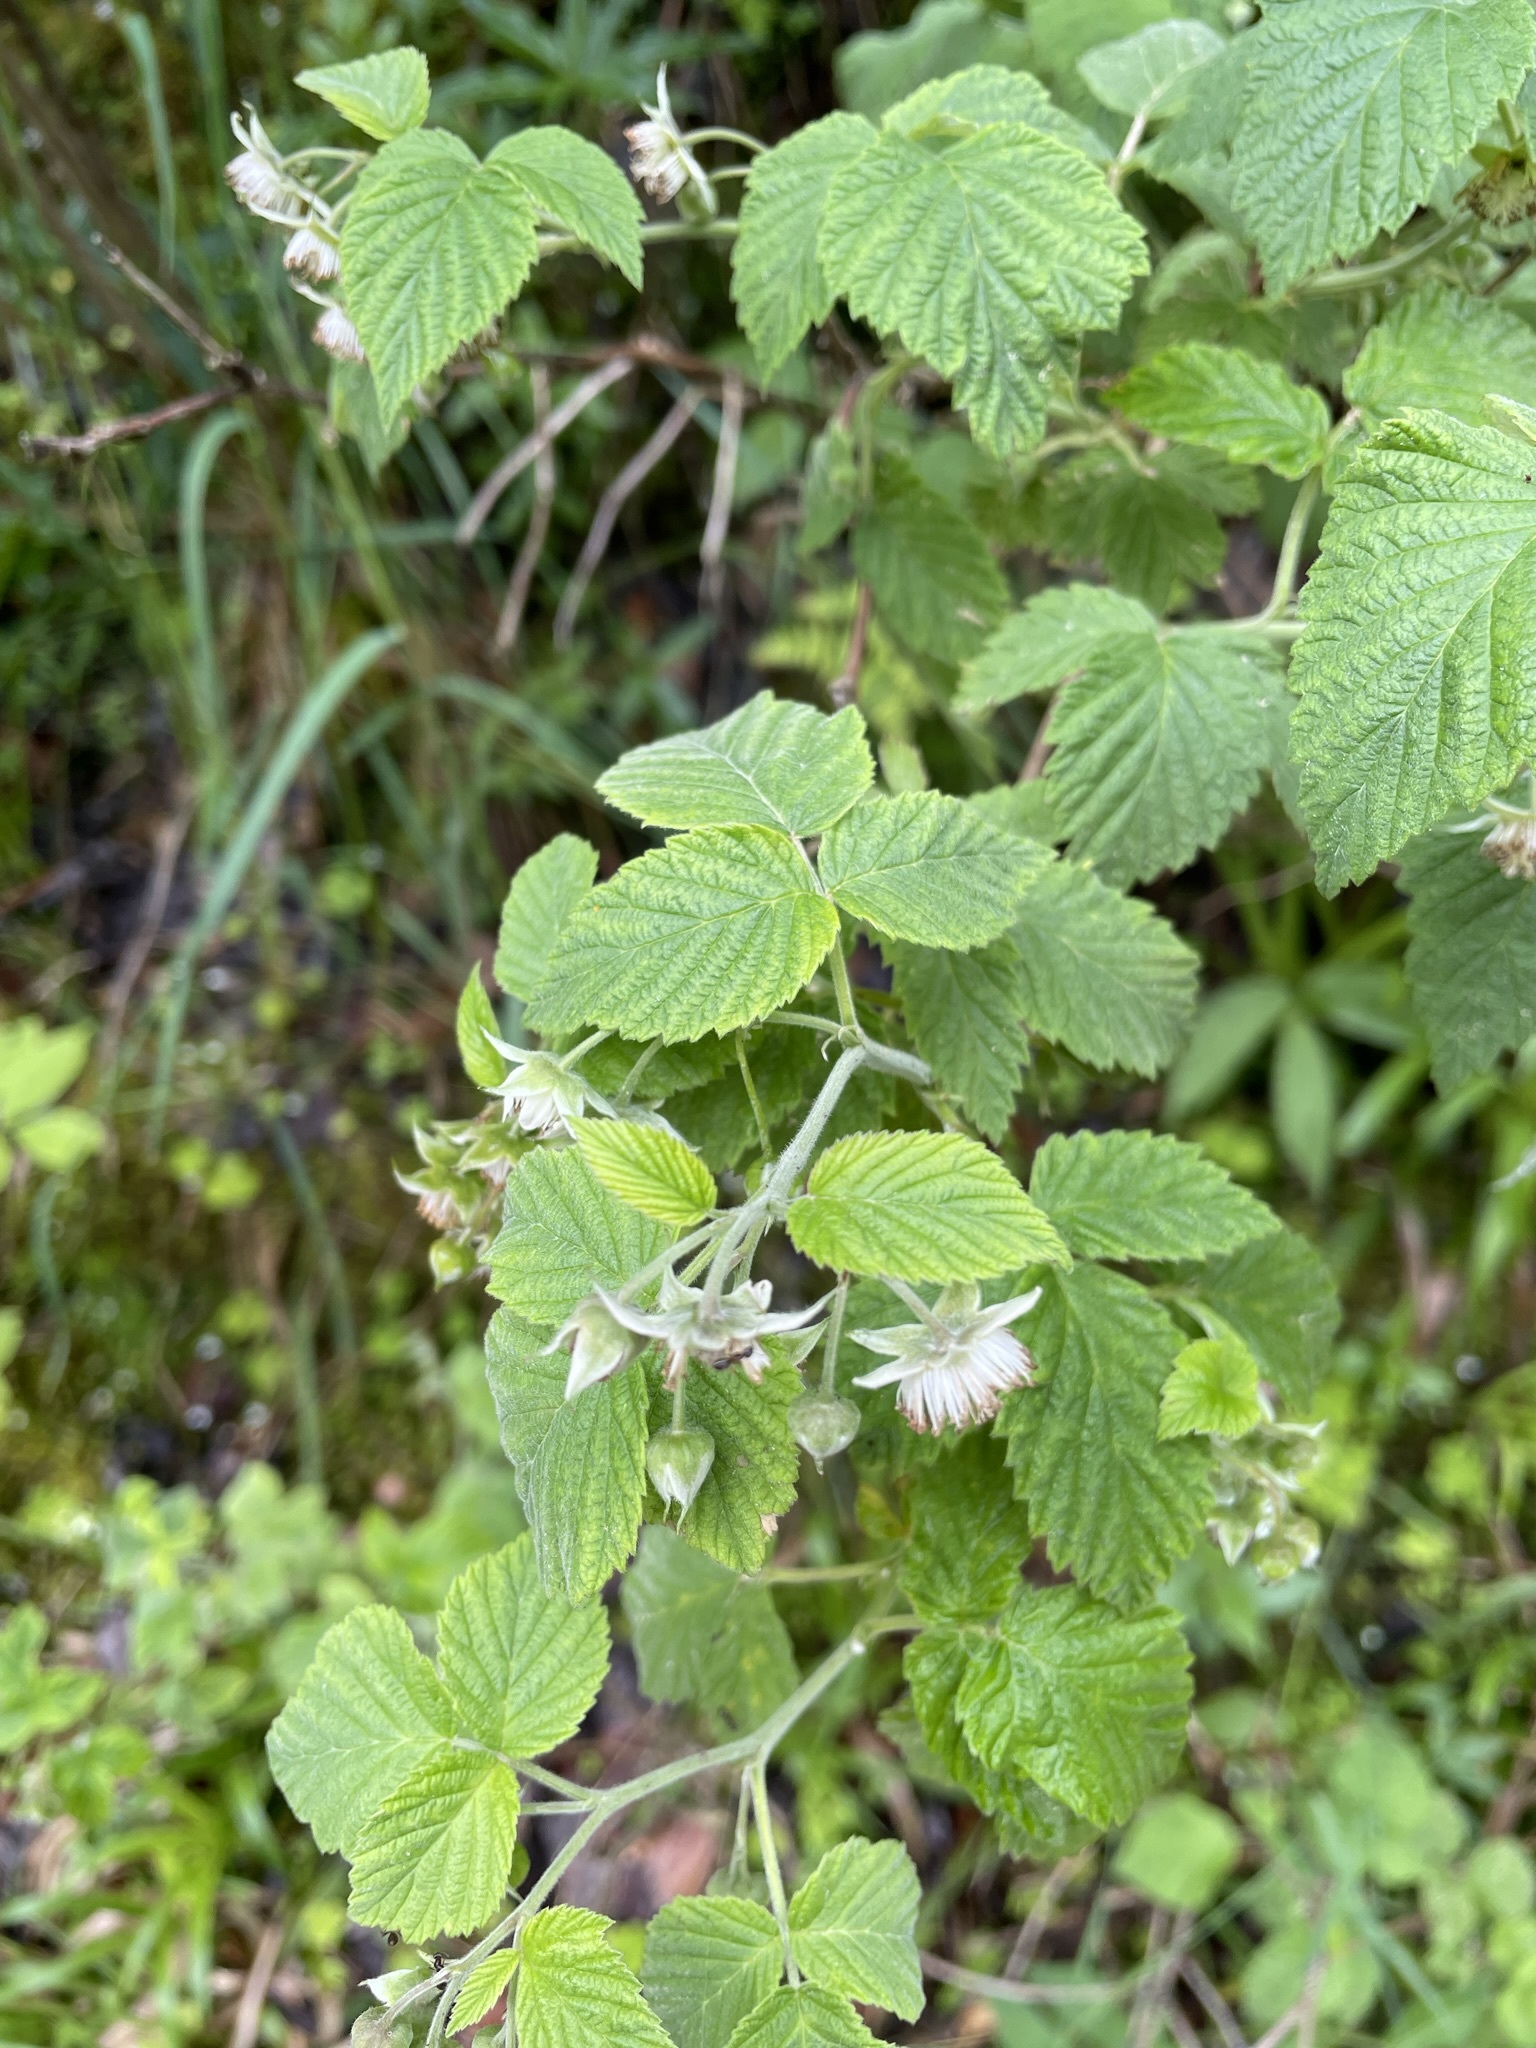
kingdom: Plantae
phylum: Tracheophyta
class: Magnoliopsida
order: Rosales
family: Rosaceae
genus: Rubus
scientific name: Rubus idaeus
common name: Raspberry
